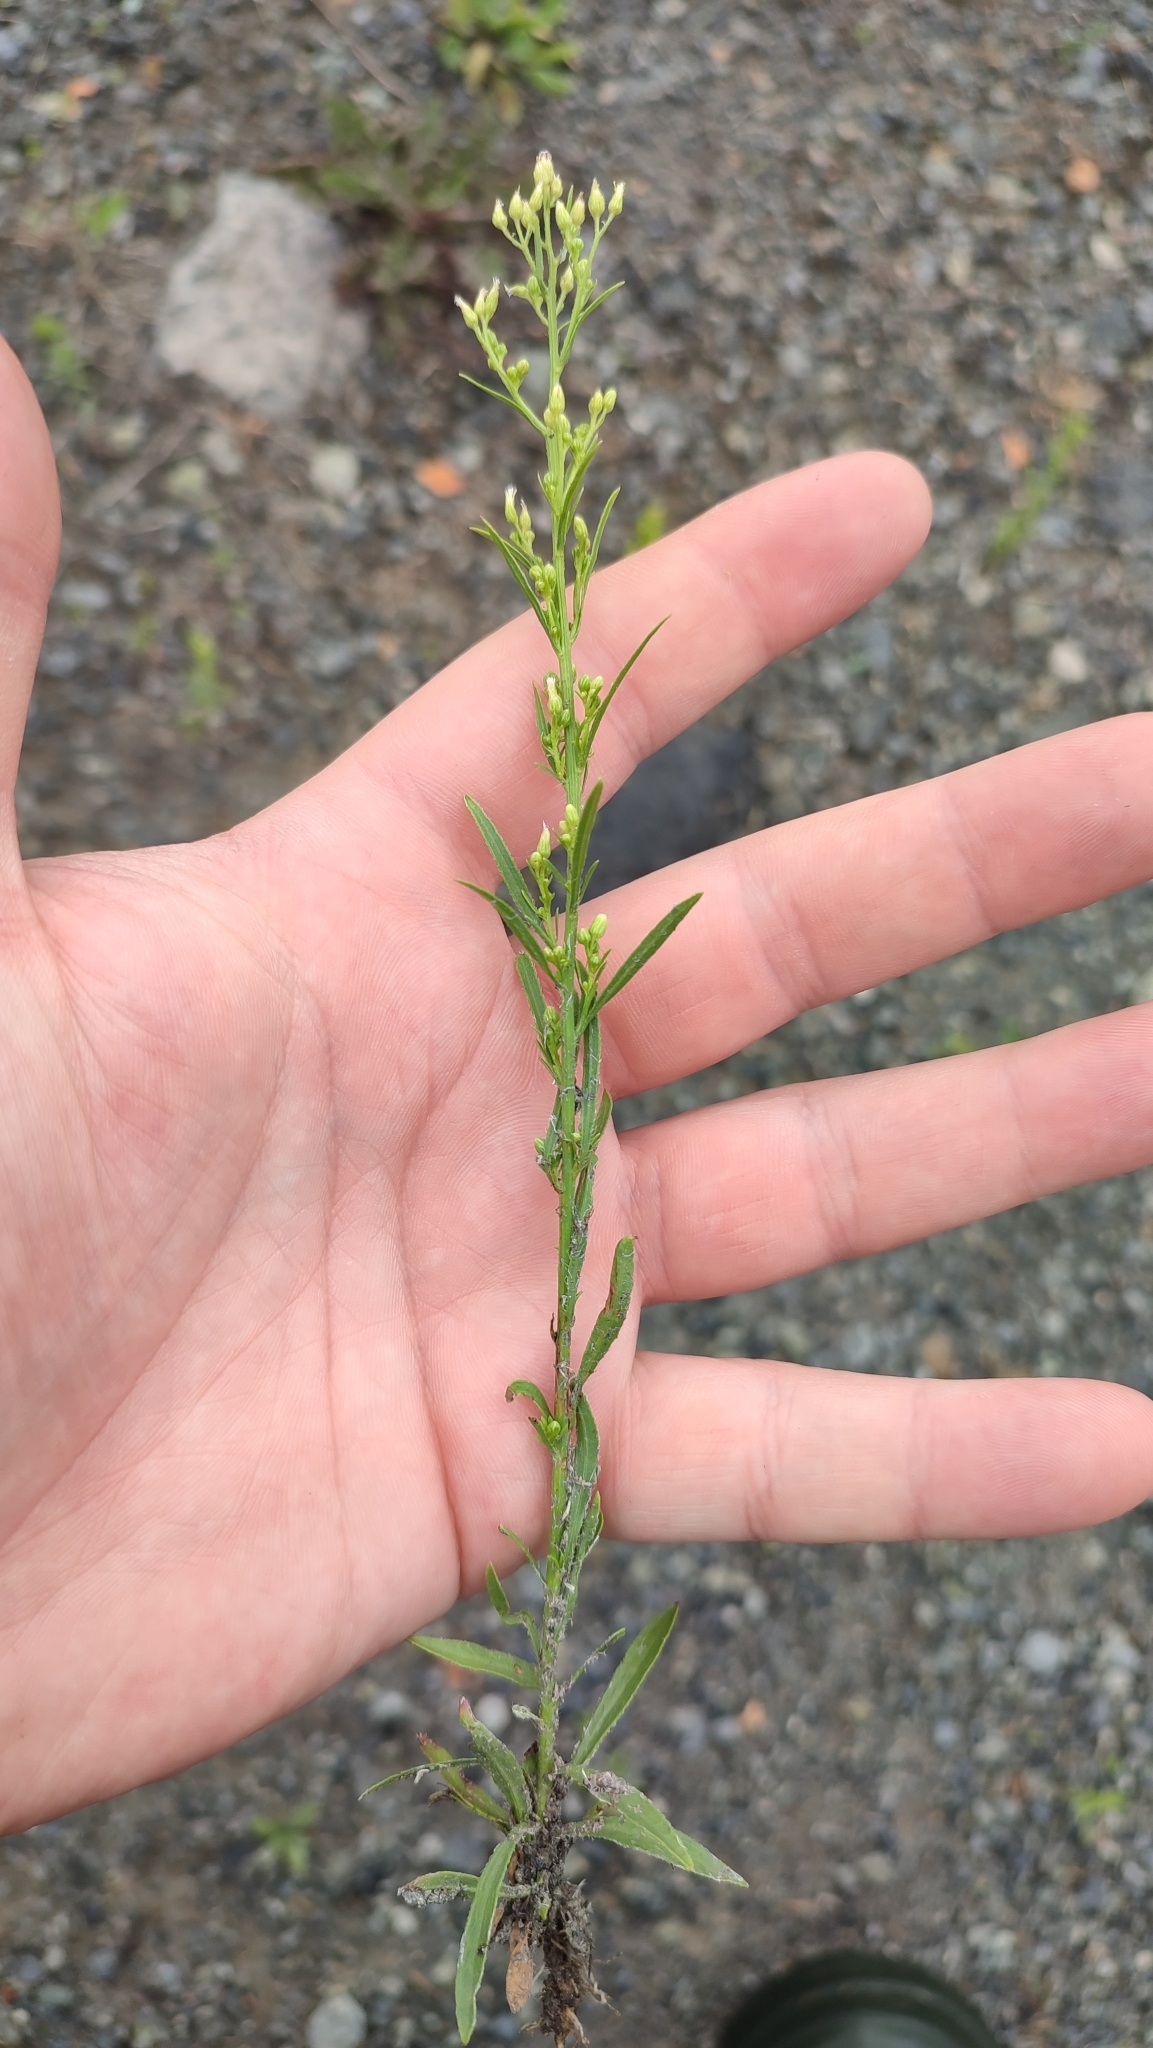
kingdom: Plantae
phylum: Tracheophyta
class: Magnoliopsida
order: Asterales
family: Asteraceae
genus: Erigeron
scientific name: Erigeron canadensis
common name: Canadian fleabane
